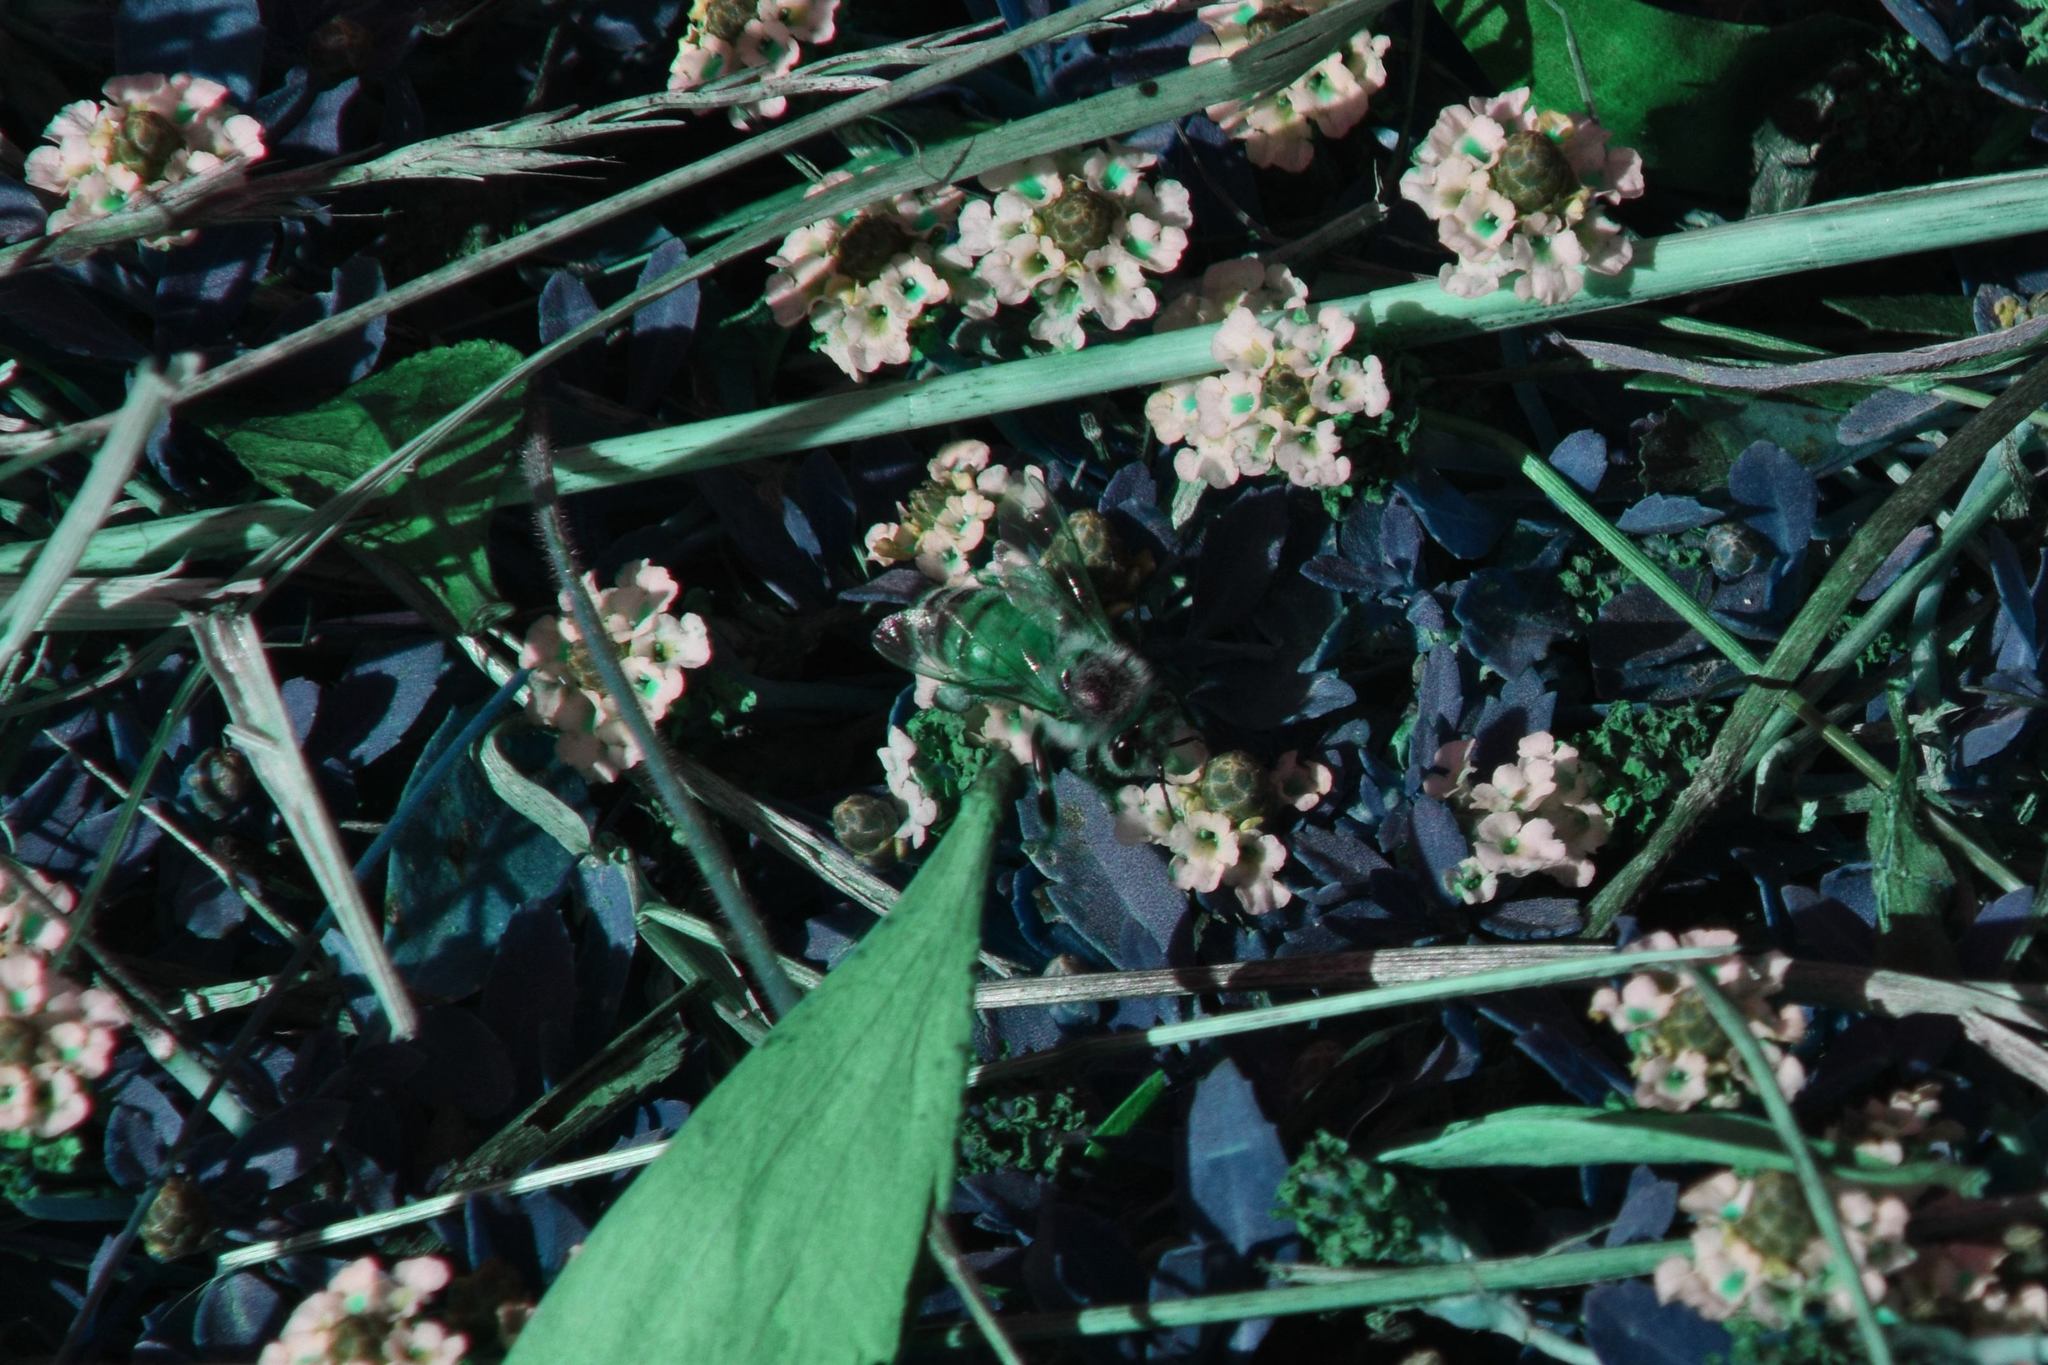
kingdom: Plantae
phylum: Tracheophyta
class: Magnoliopsida
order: Lamiales
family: Verbenaceae
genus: Phyla
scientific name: Phyla nodiflora
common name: Frogfruit
